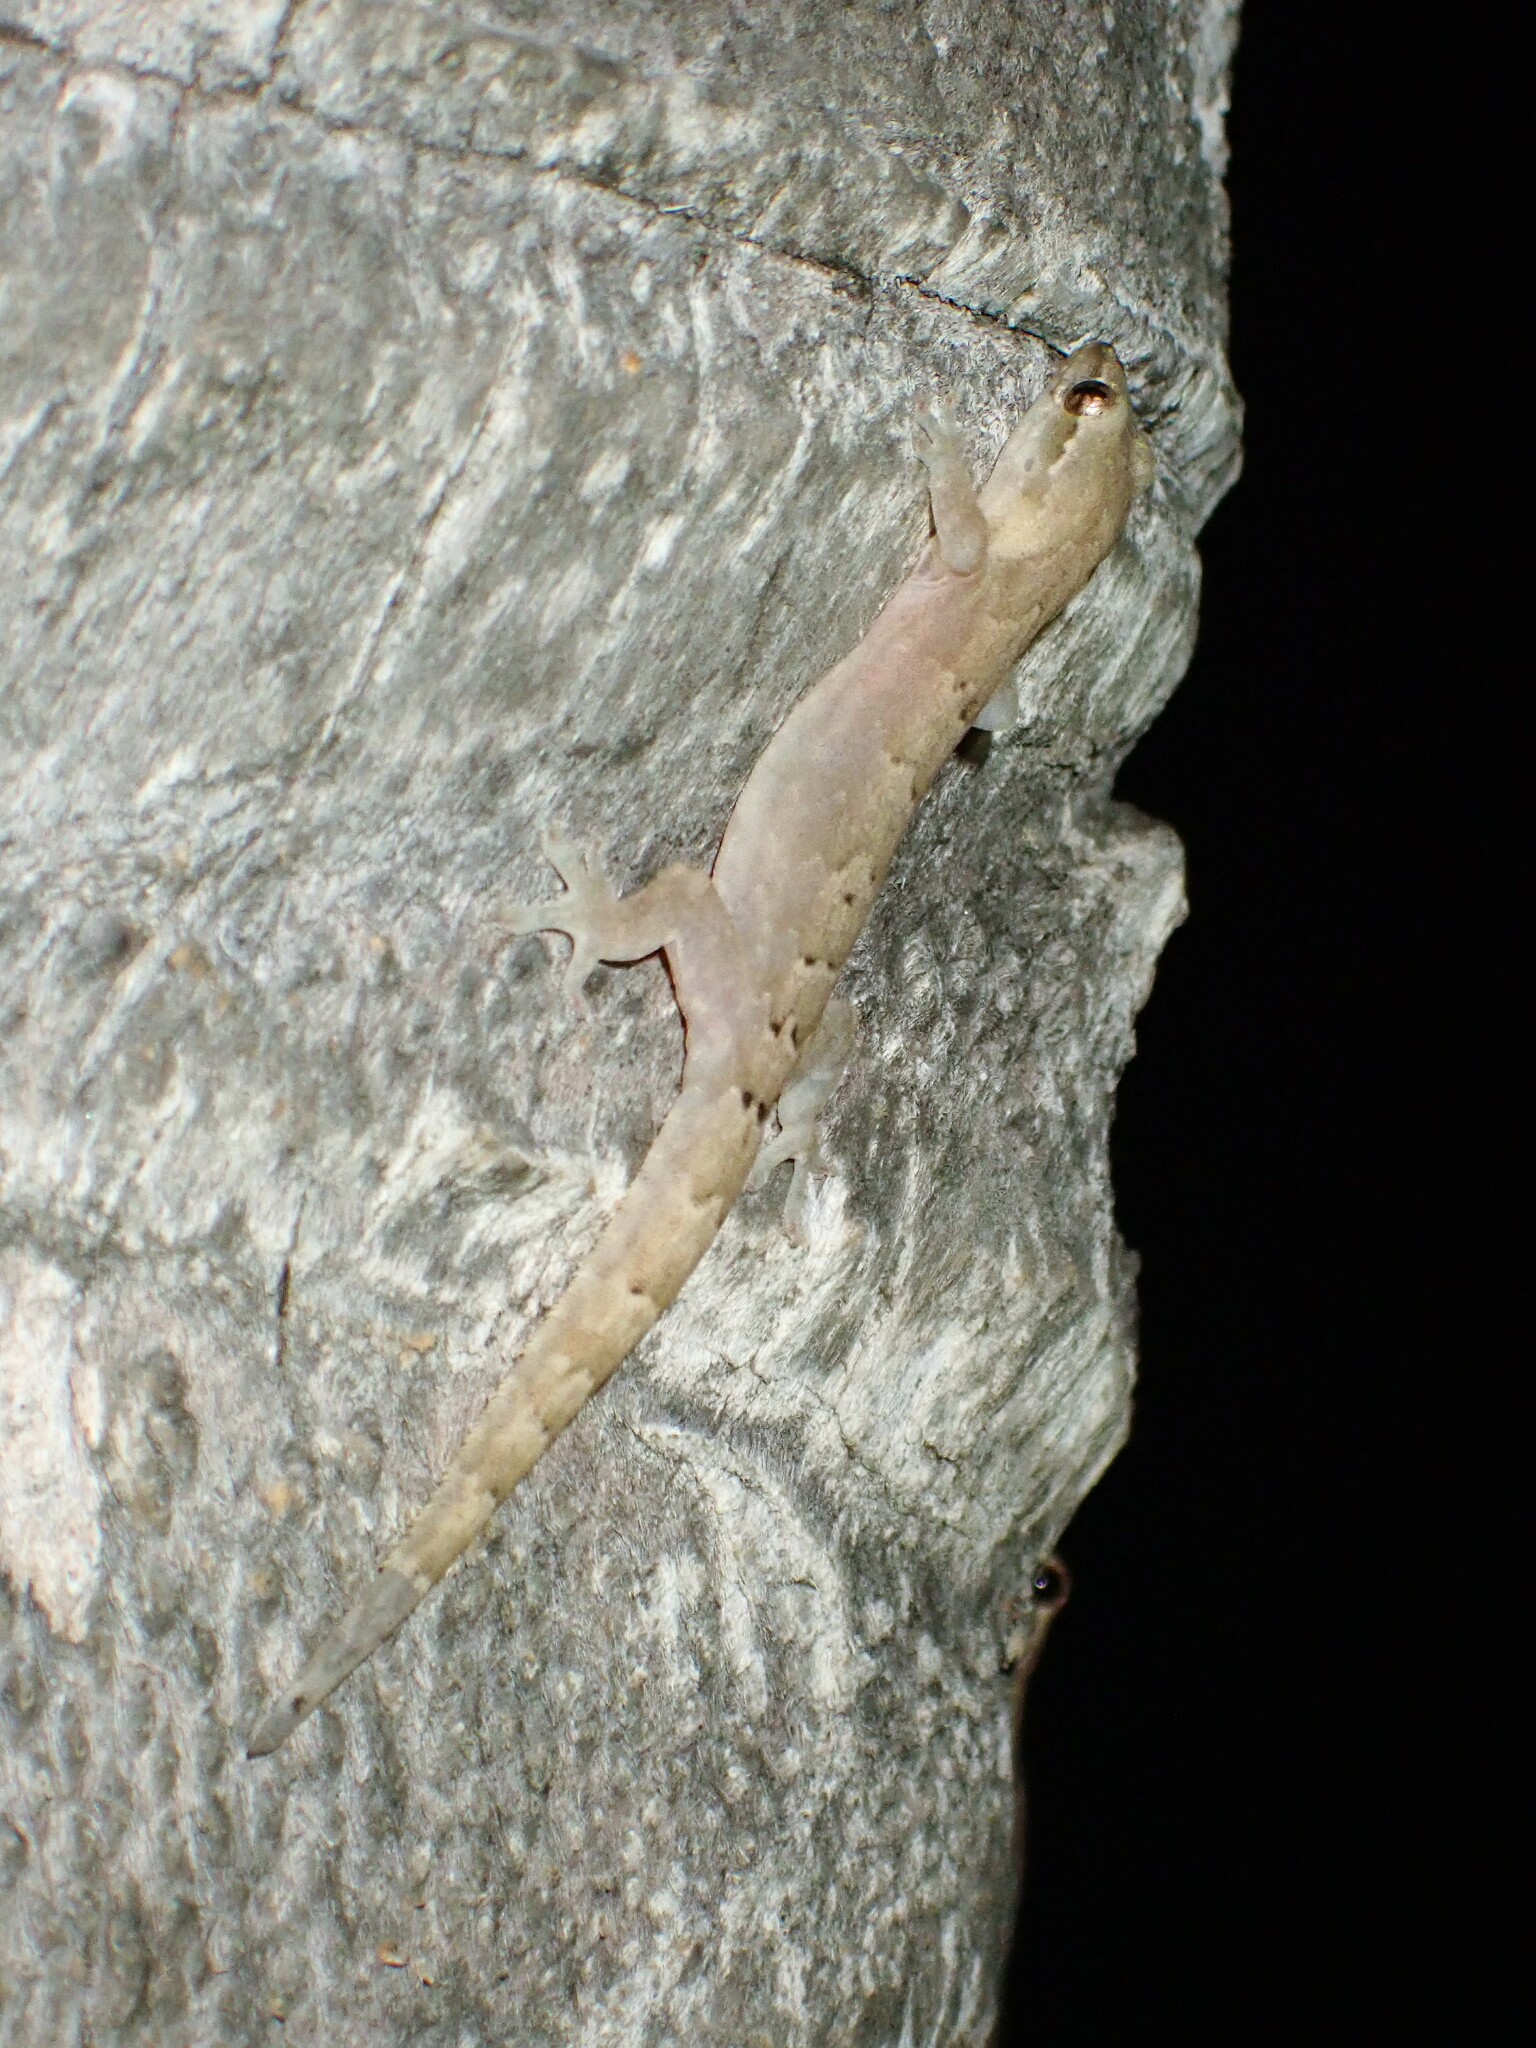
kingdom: Animalia
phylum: Chordata
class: Squamata
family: Gekkonidae
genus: Lepidodactylus
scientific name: Lepidodactylus lugubris
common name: Mourning gecko
